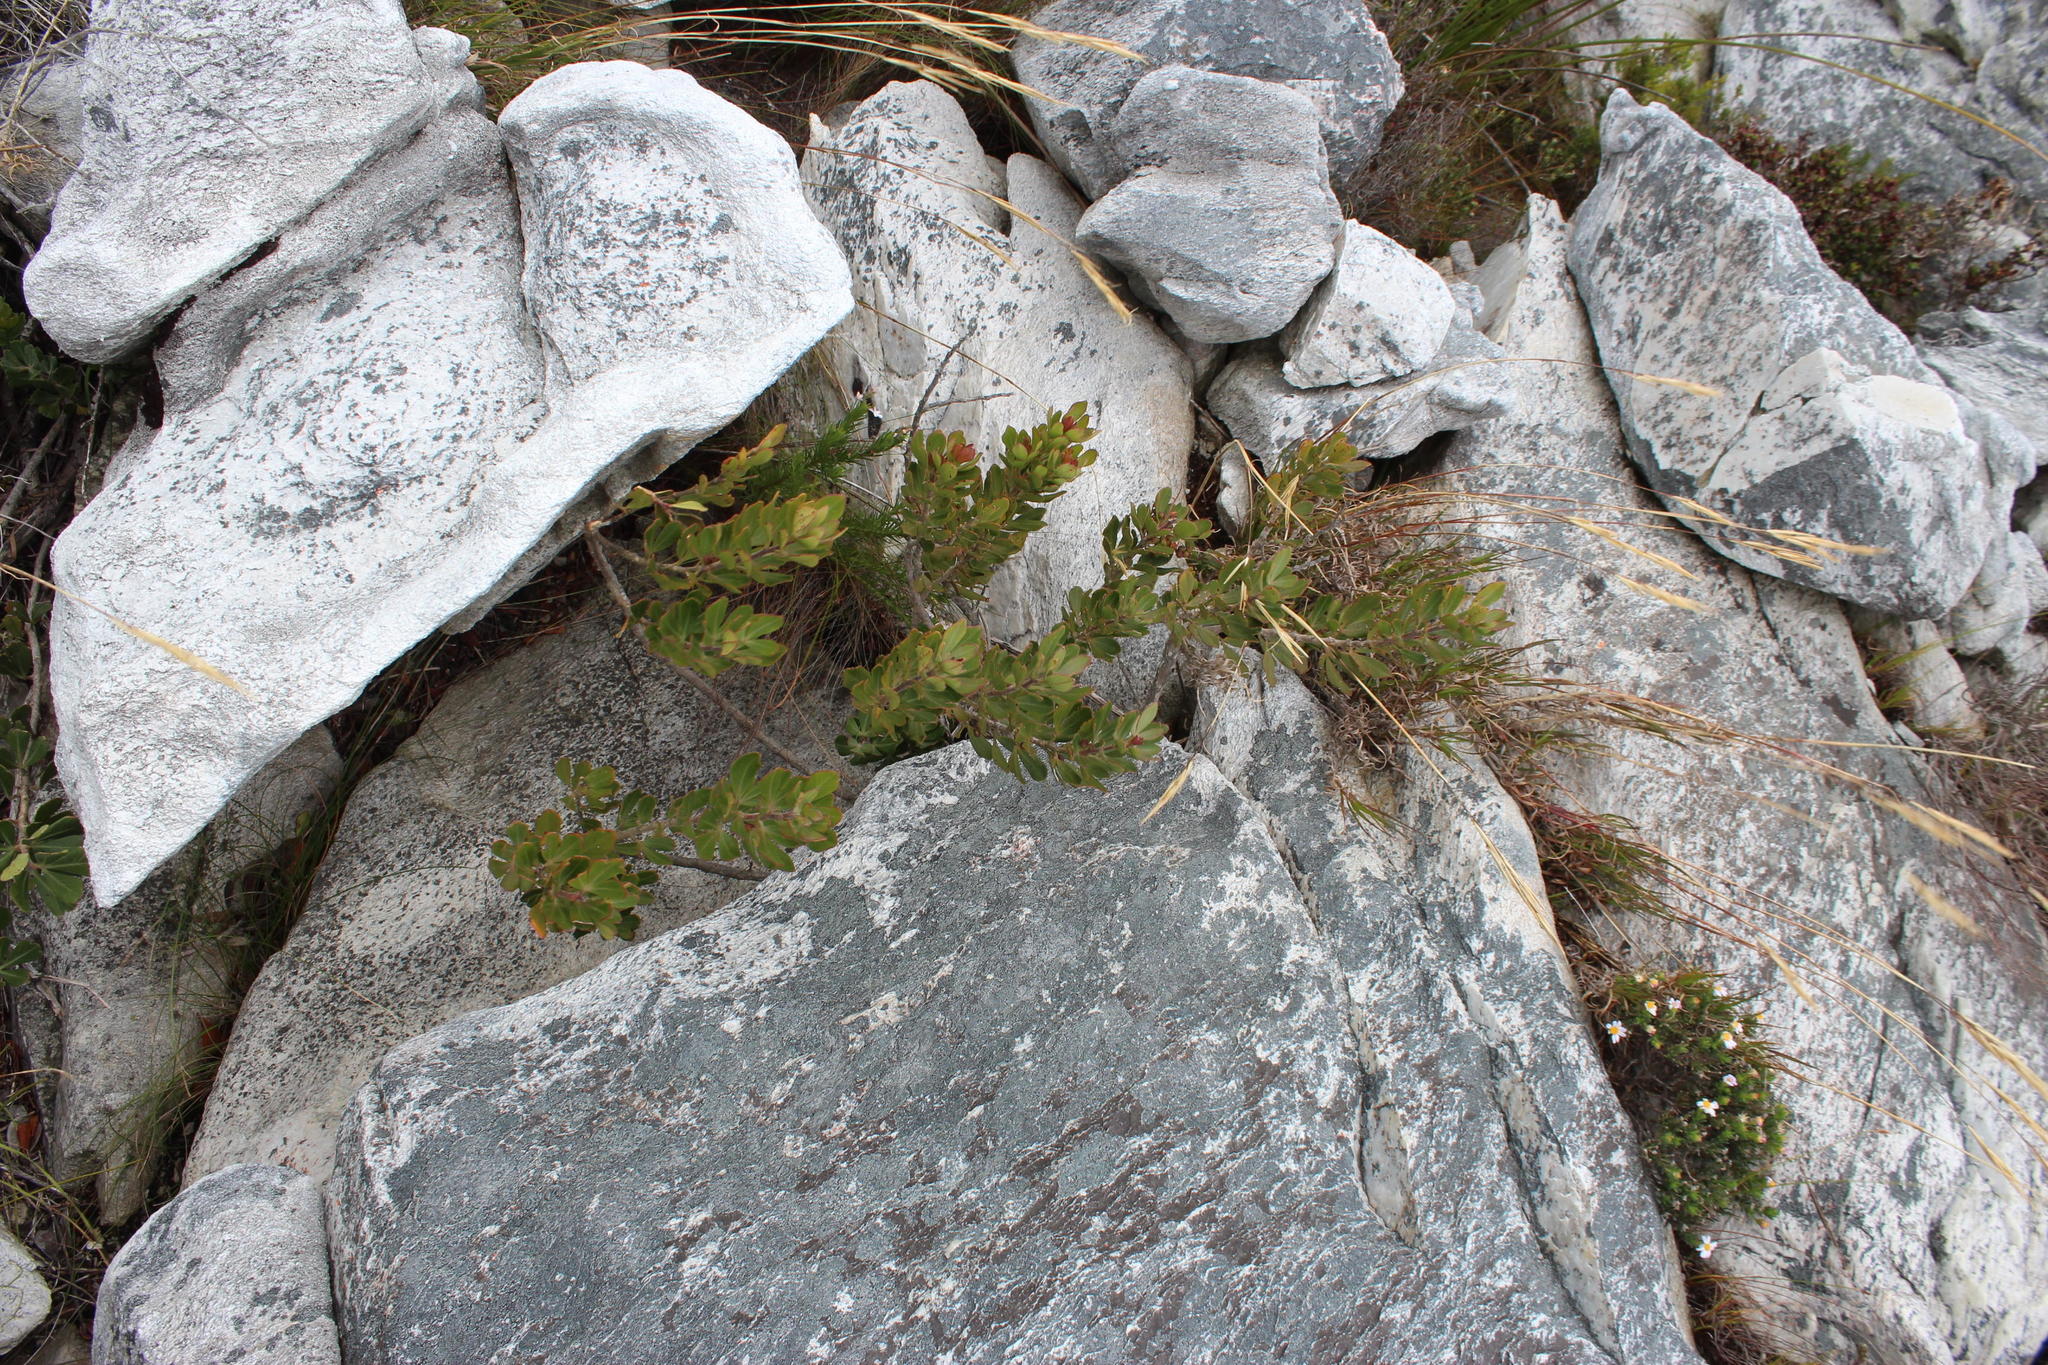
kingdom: Plantae
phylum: Tracheophyta
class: Magnoliopsida
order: Sapindales
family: Anacardiaceae
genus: Searsia
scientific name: Searsia scytophylla
